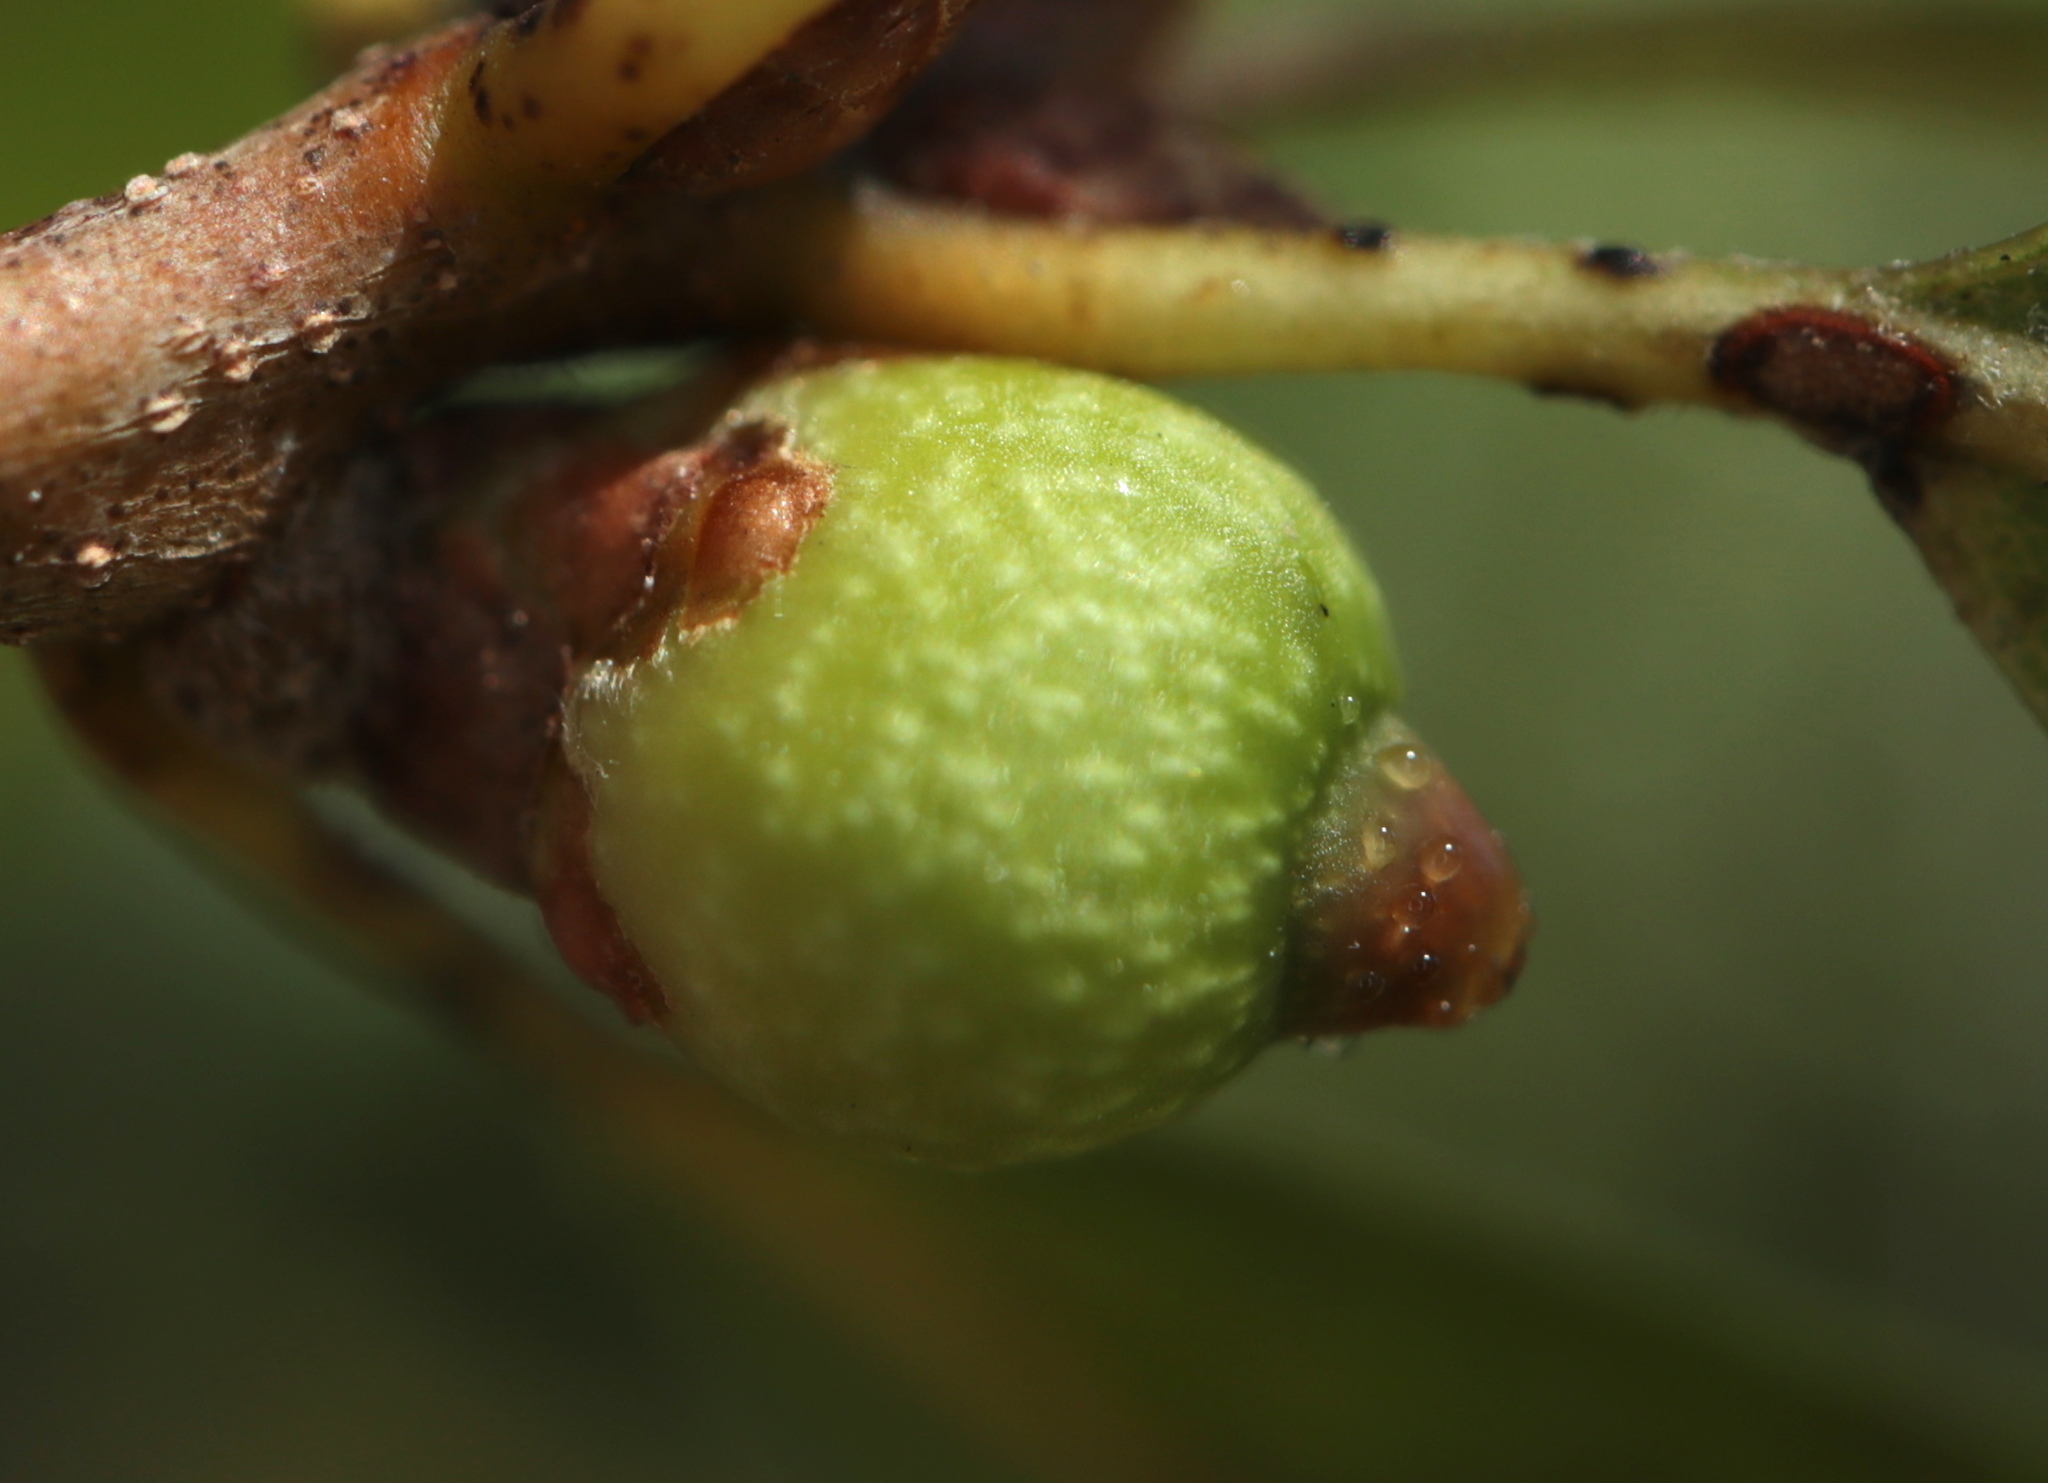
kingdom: Animalia
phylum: Arthropoda
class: Insecta
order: Hymenoptera
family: Cynipidae
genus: Callirhytis
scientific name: Callirhytis
